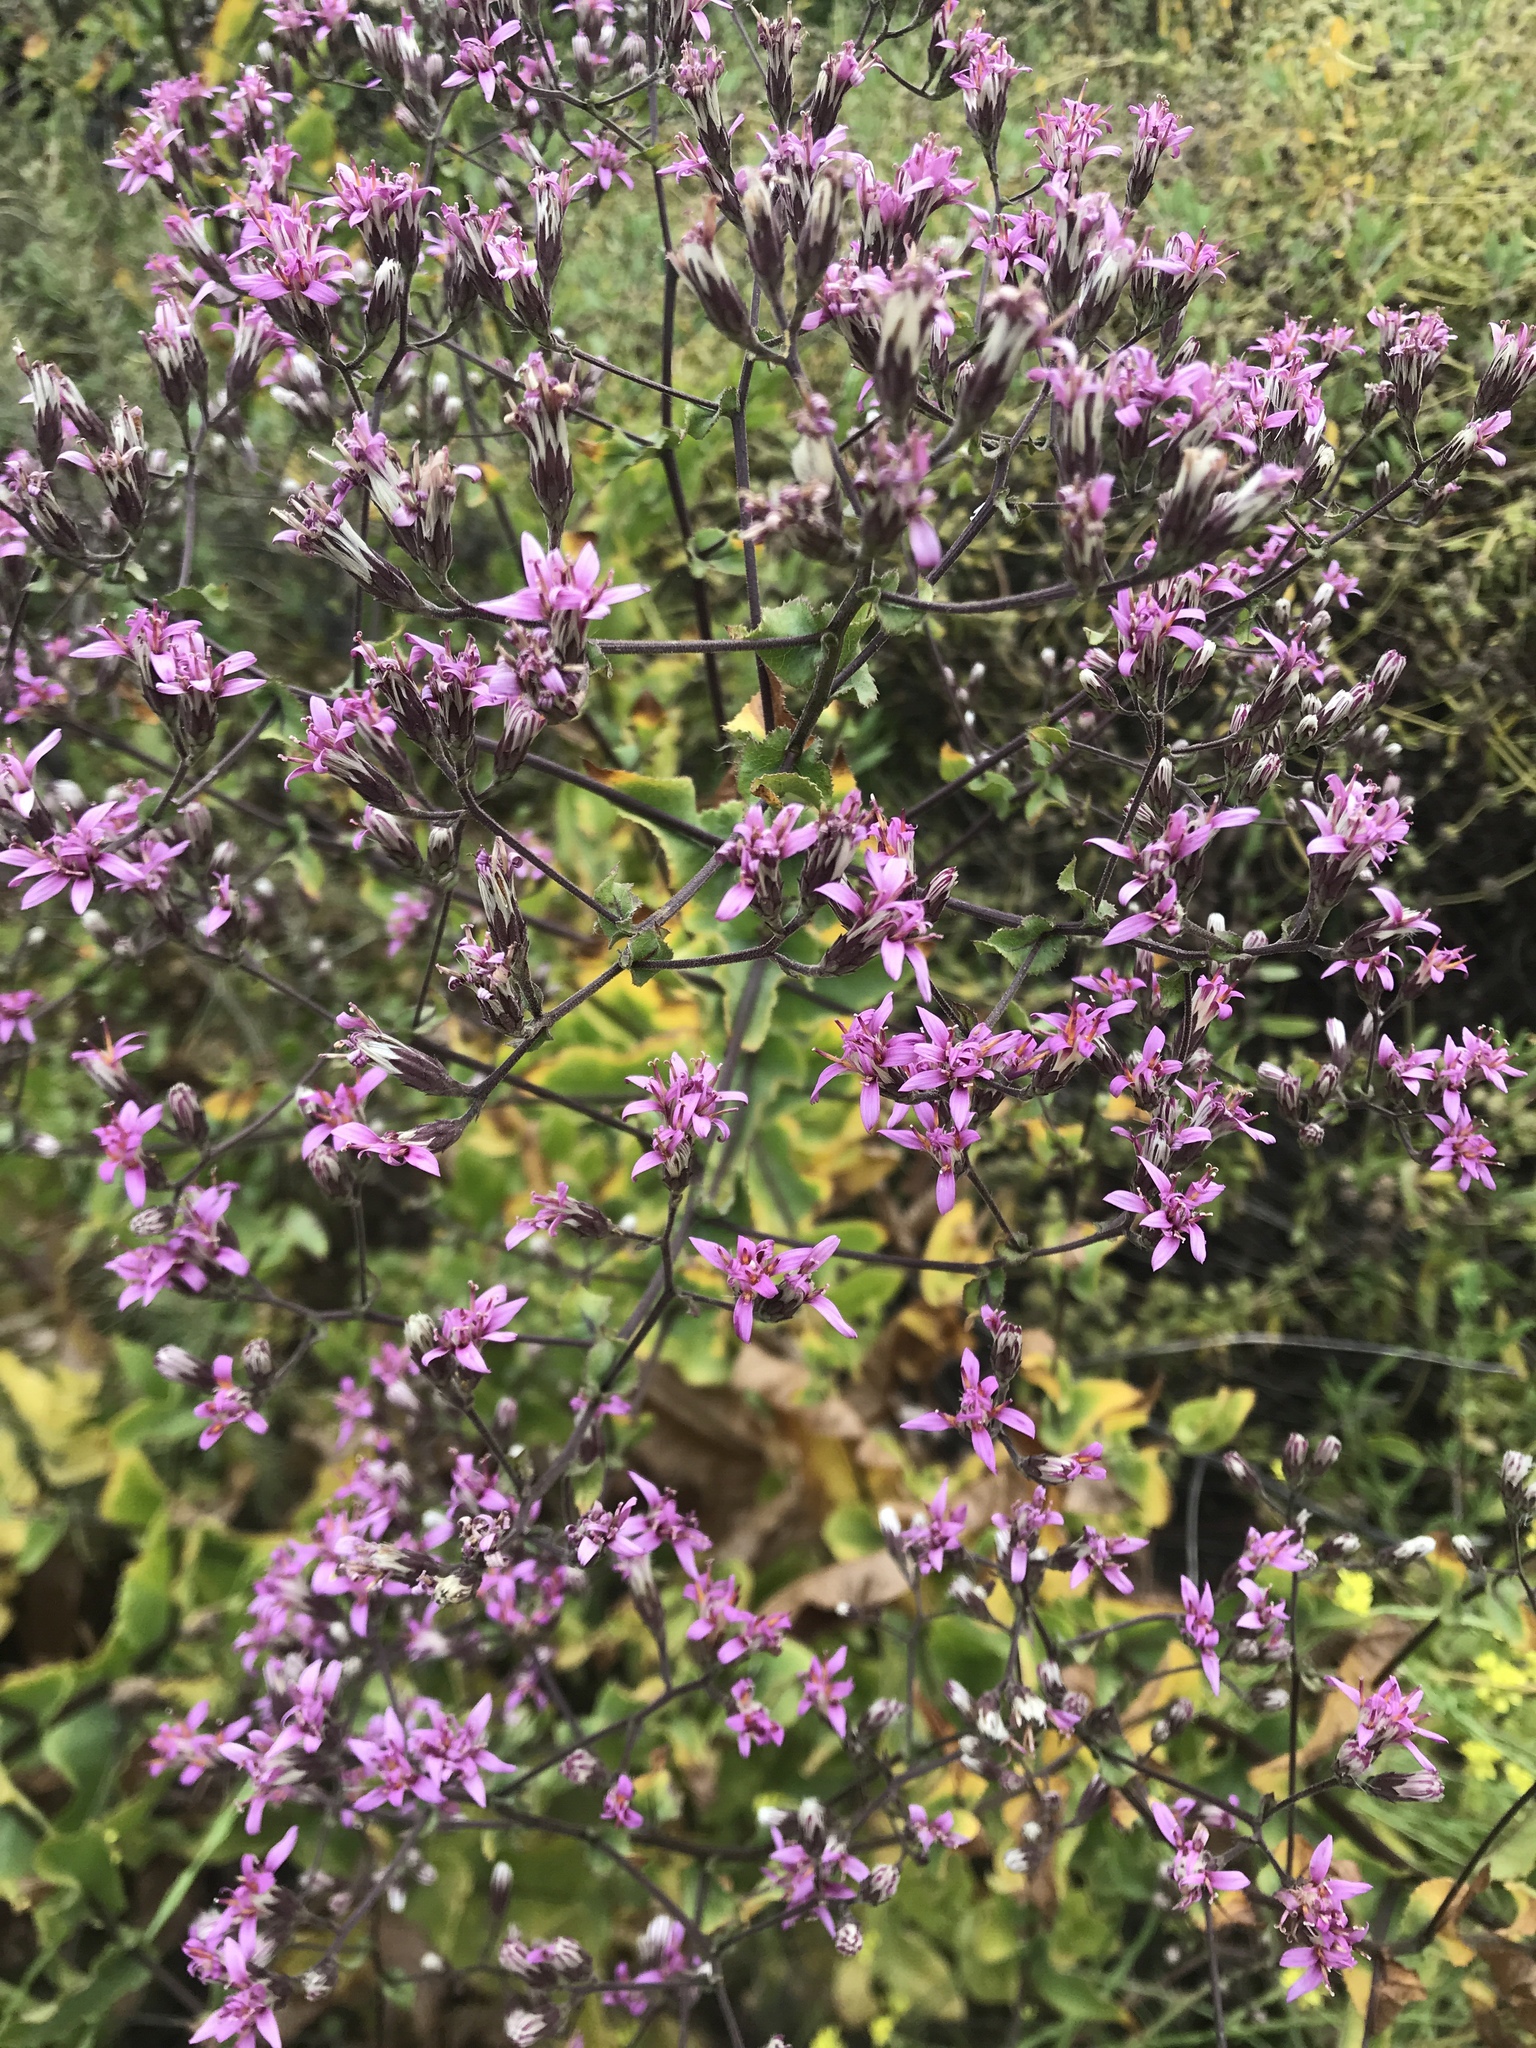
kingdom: Plantae
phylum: Tracheophyta
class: Magnoliopsida
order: Asterales
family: Asteraceae
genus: Acourtia
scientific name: Acourtia microcephala
